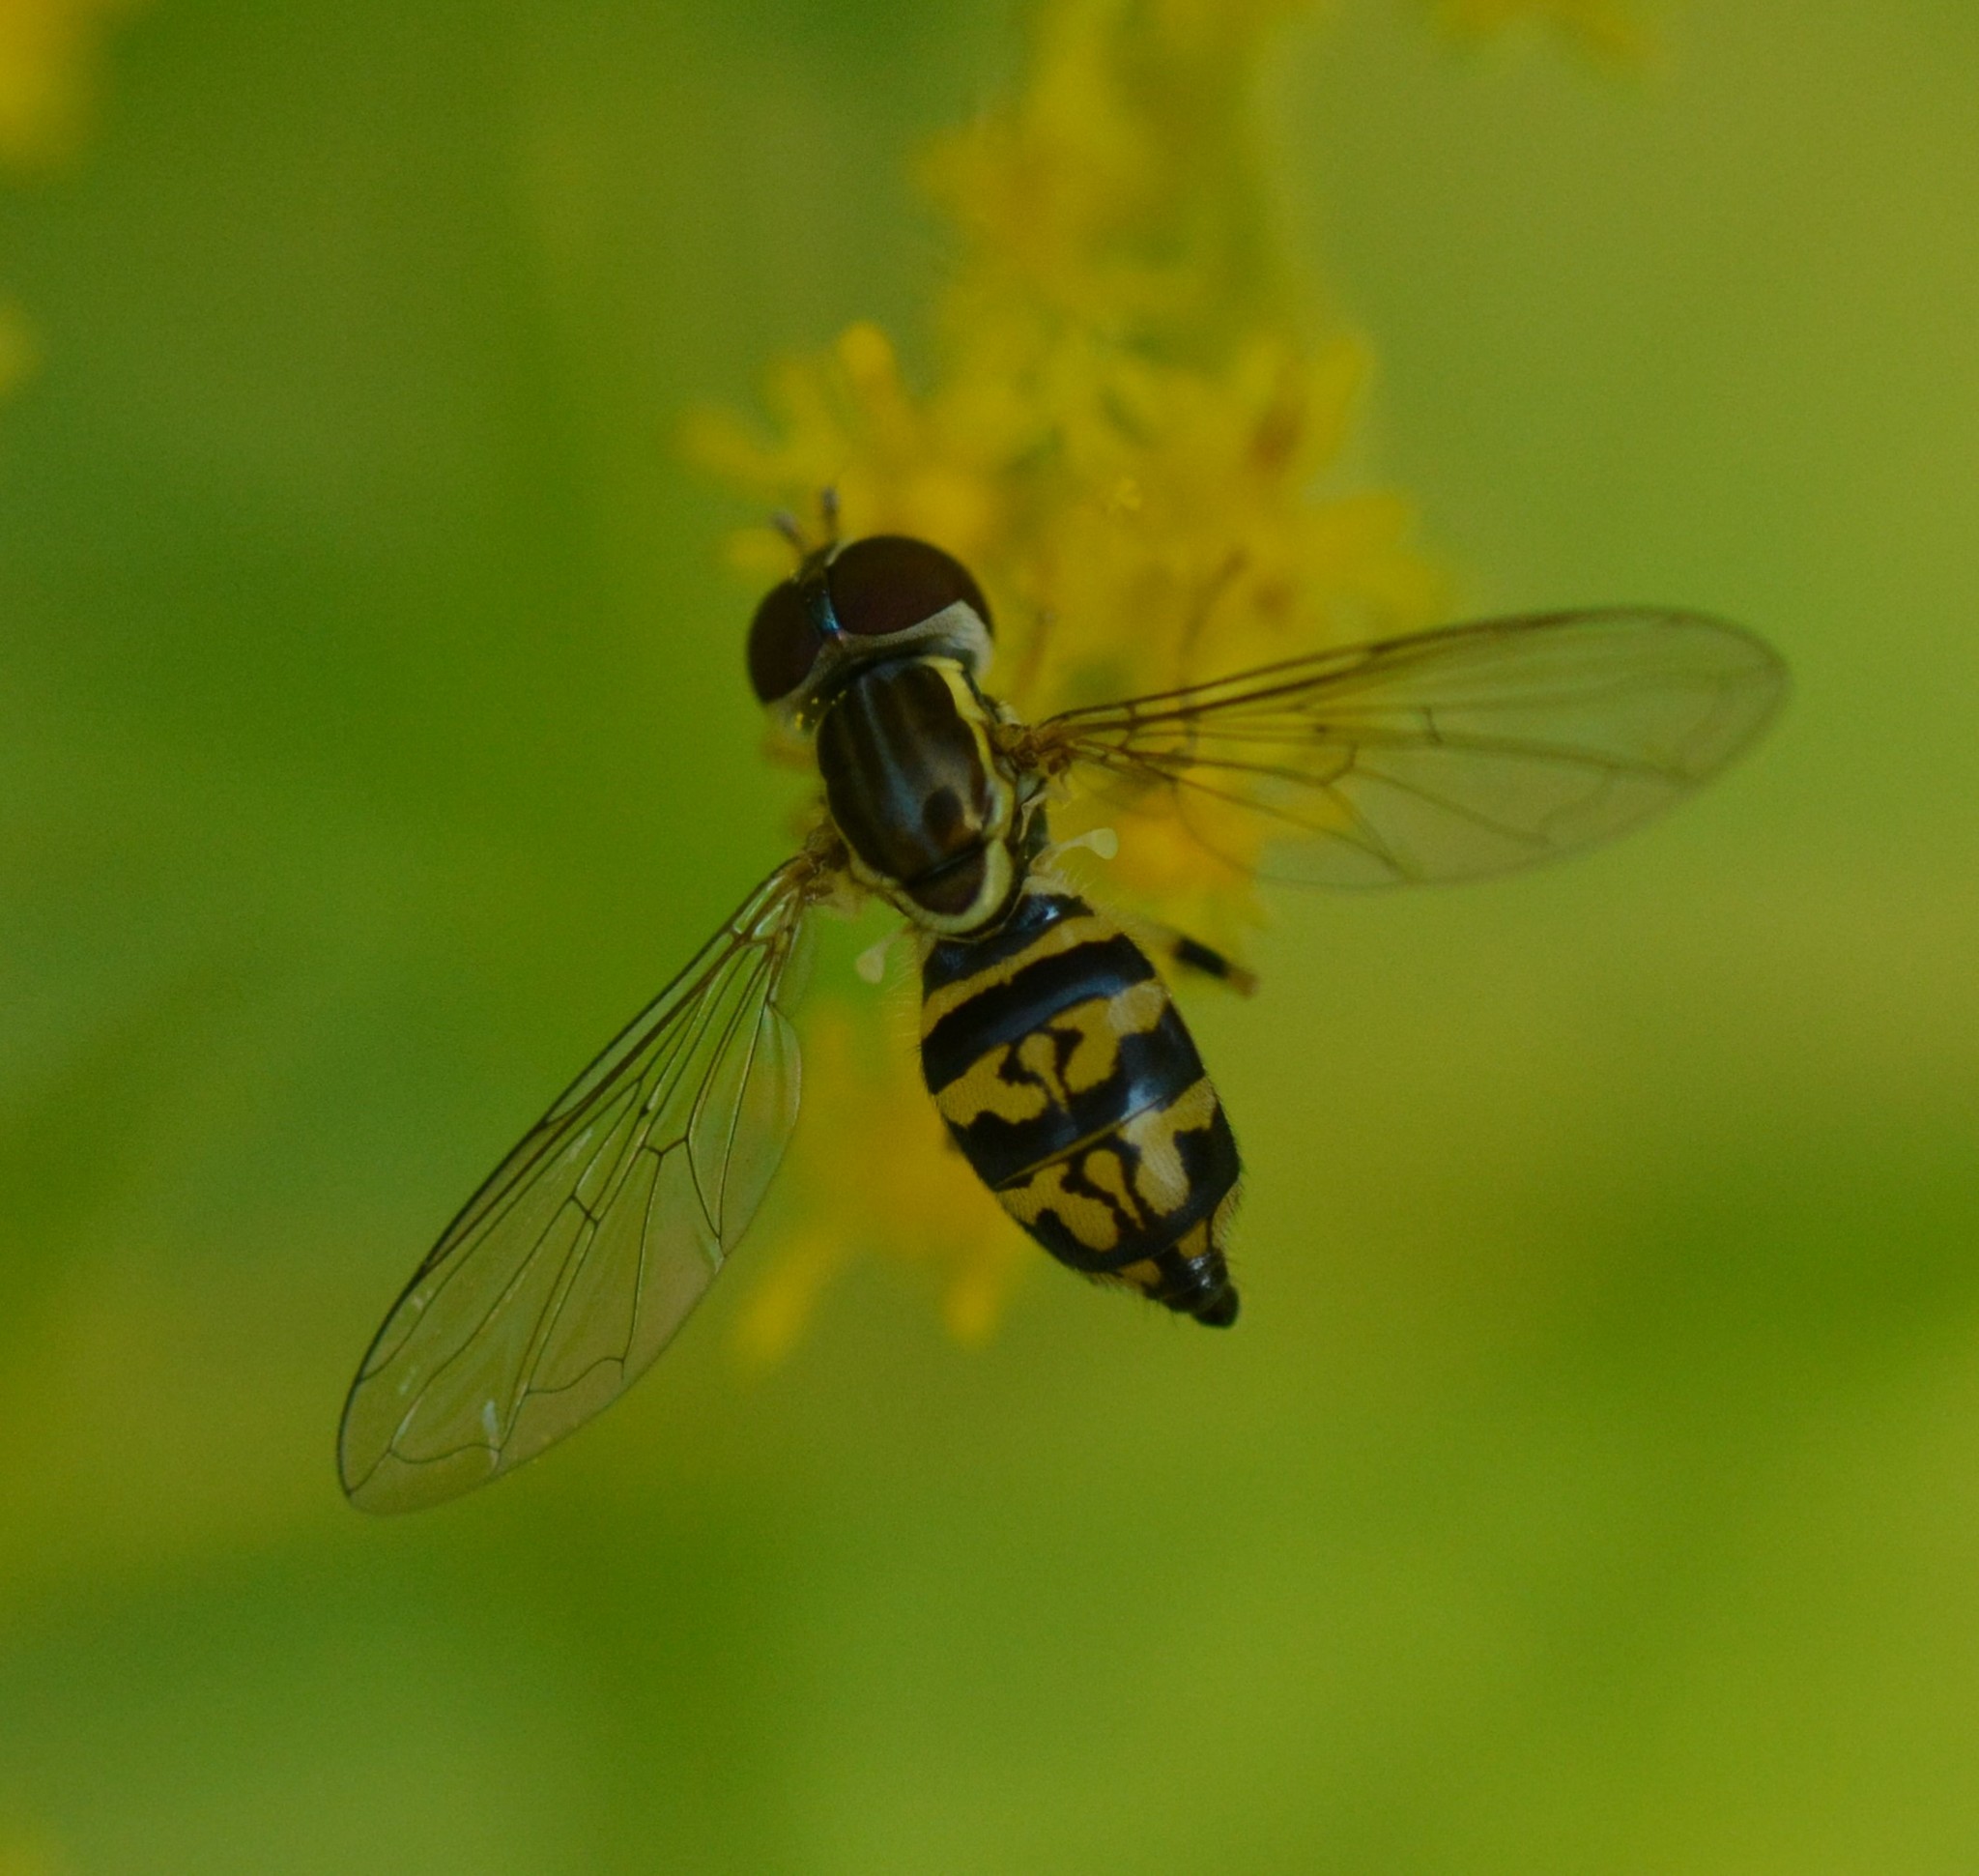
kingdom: Animalia
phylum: Arthropoda
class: Insecta
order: Diptera
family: Syrphidae
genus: Toxomerus
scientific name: Toxomerus geminatus
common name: Eastern calligrapher
